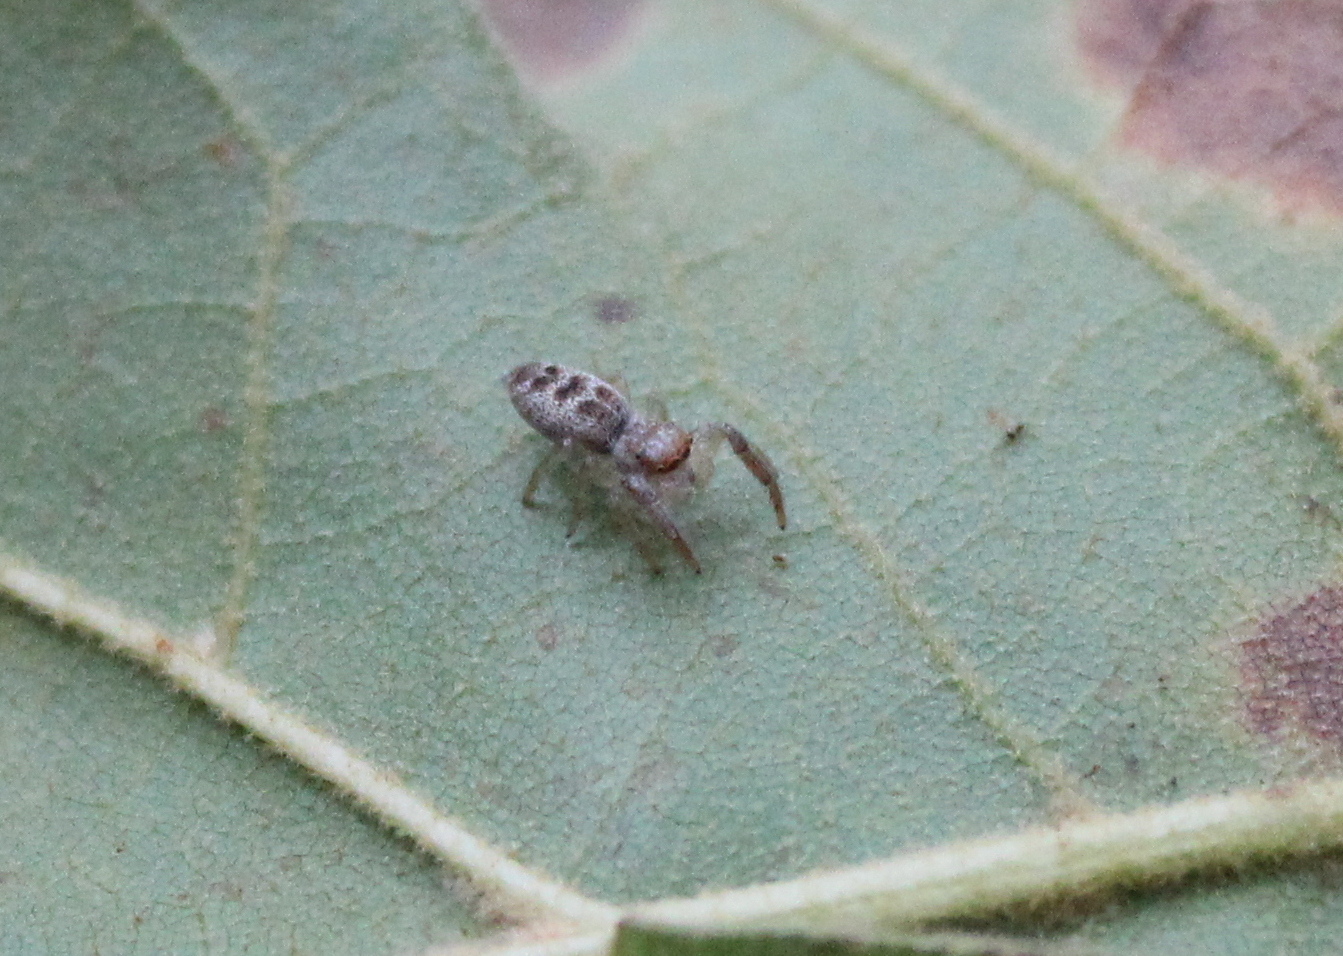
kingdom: Animalia
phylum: Arthropoda
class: Arachnida
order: Araneae
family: Salticidae
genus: Hentzia
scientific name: Hentzia mitrata
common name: White-jawed jumping spider
